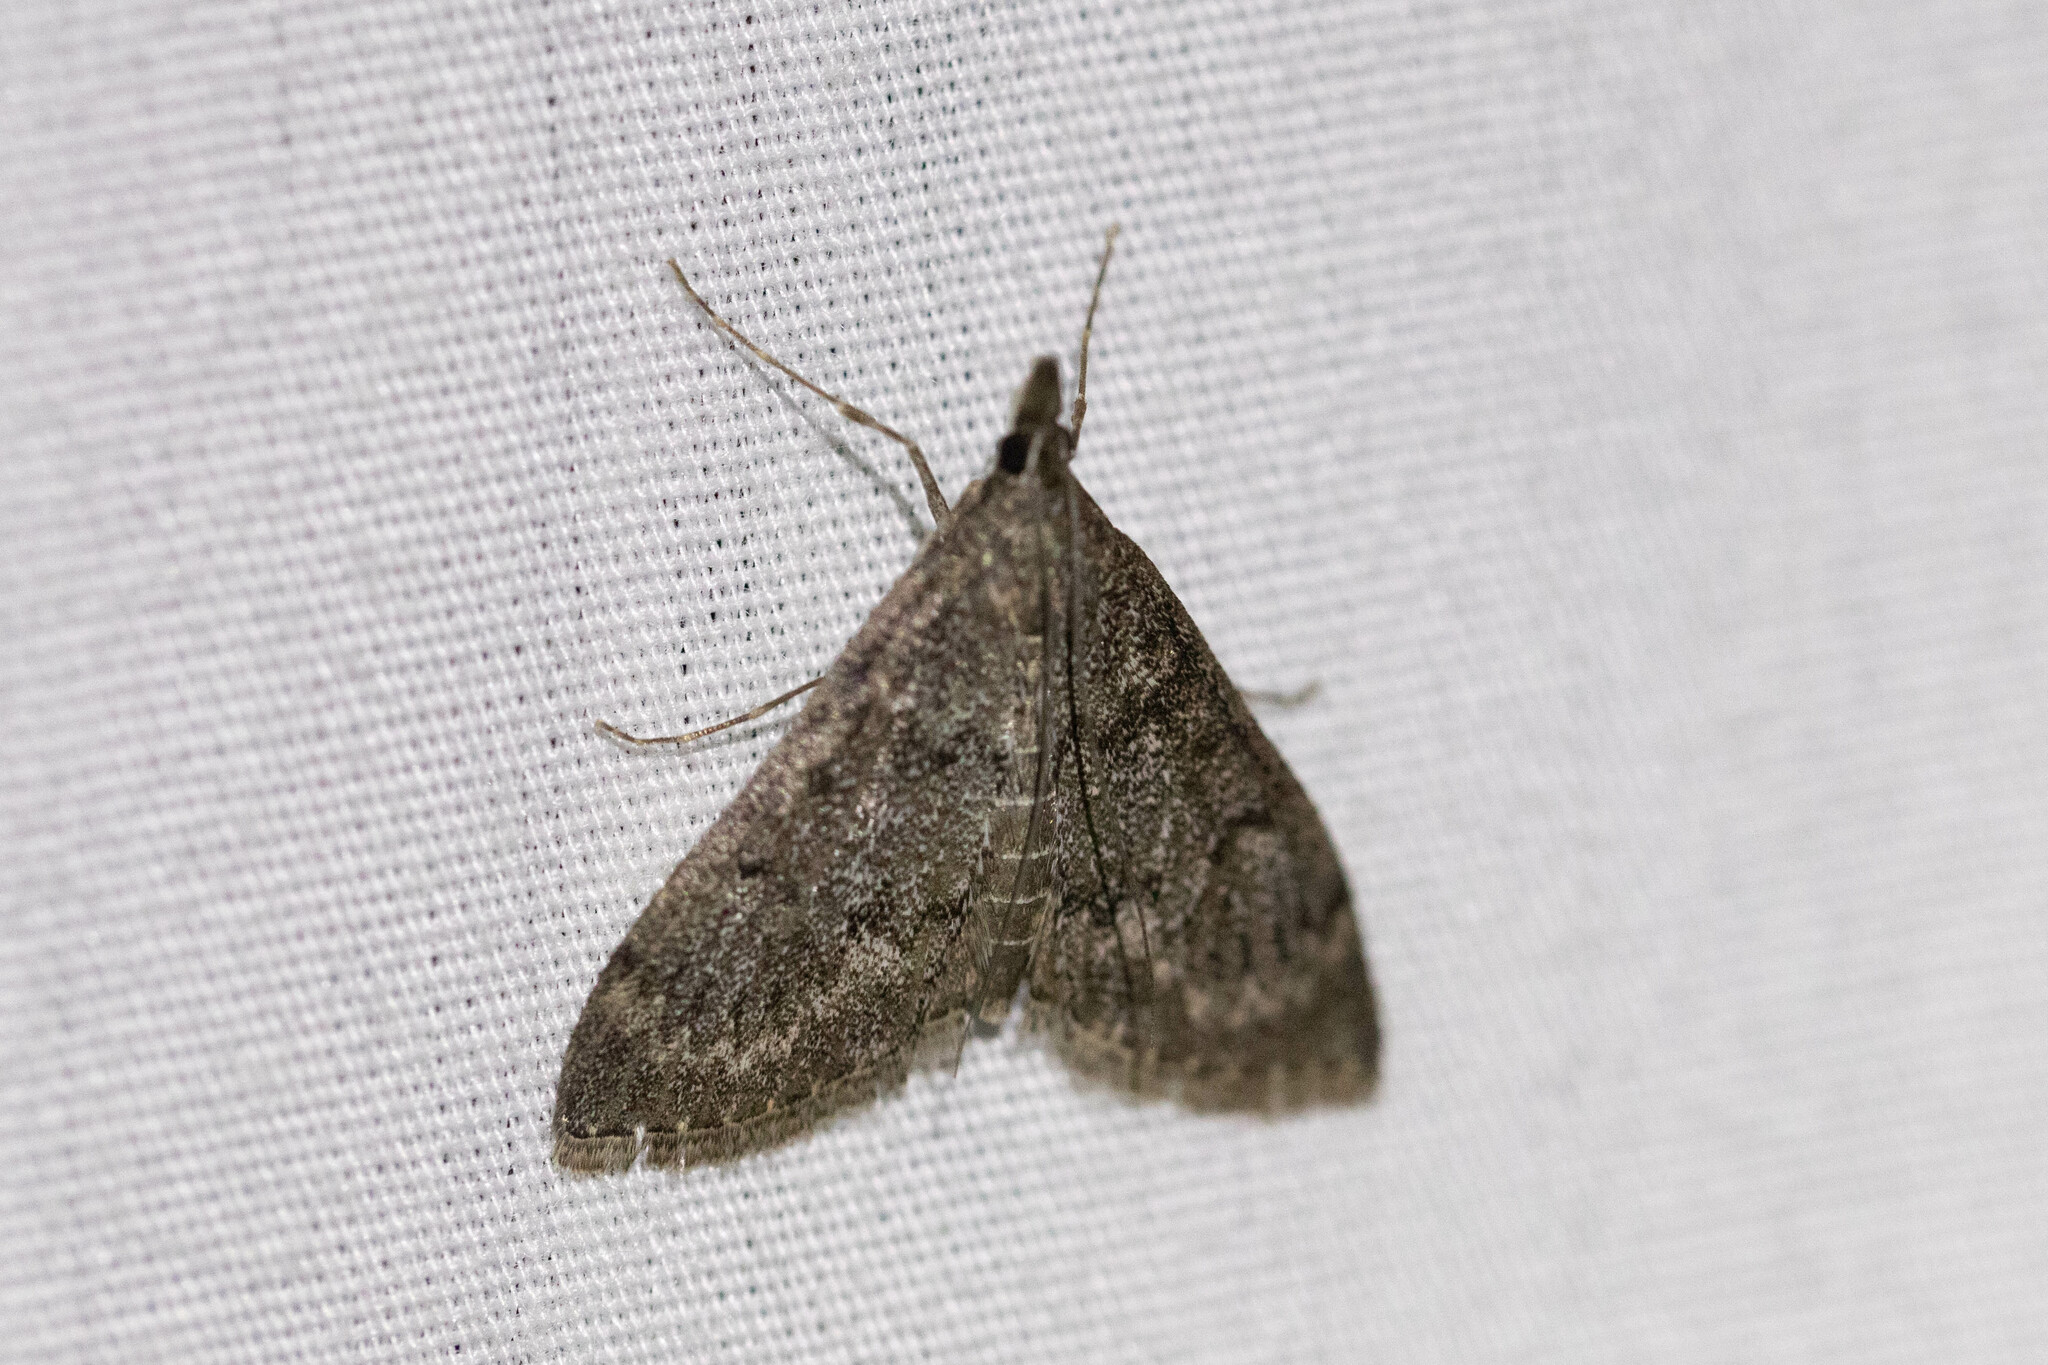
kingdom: Animalia
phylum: Arthropoda
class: Insecta
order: Lepidoptera
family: Crambidae
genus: Saucrobotys
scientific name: Saucrobotys fumoferalis
